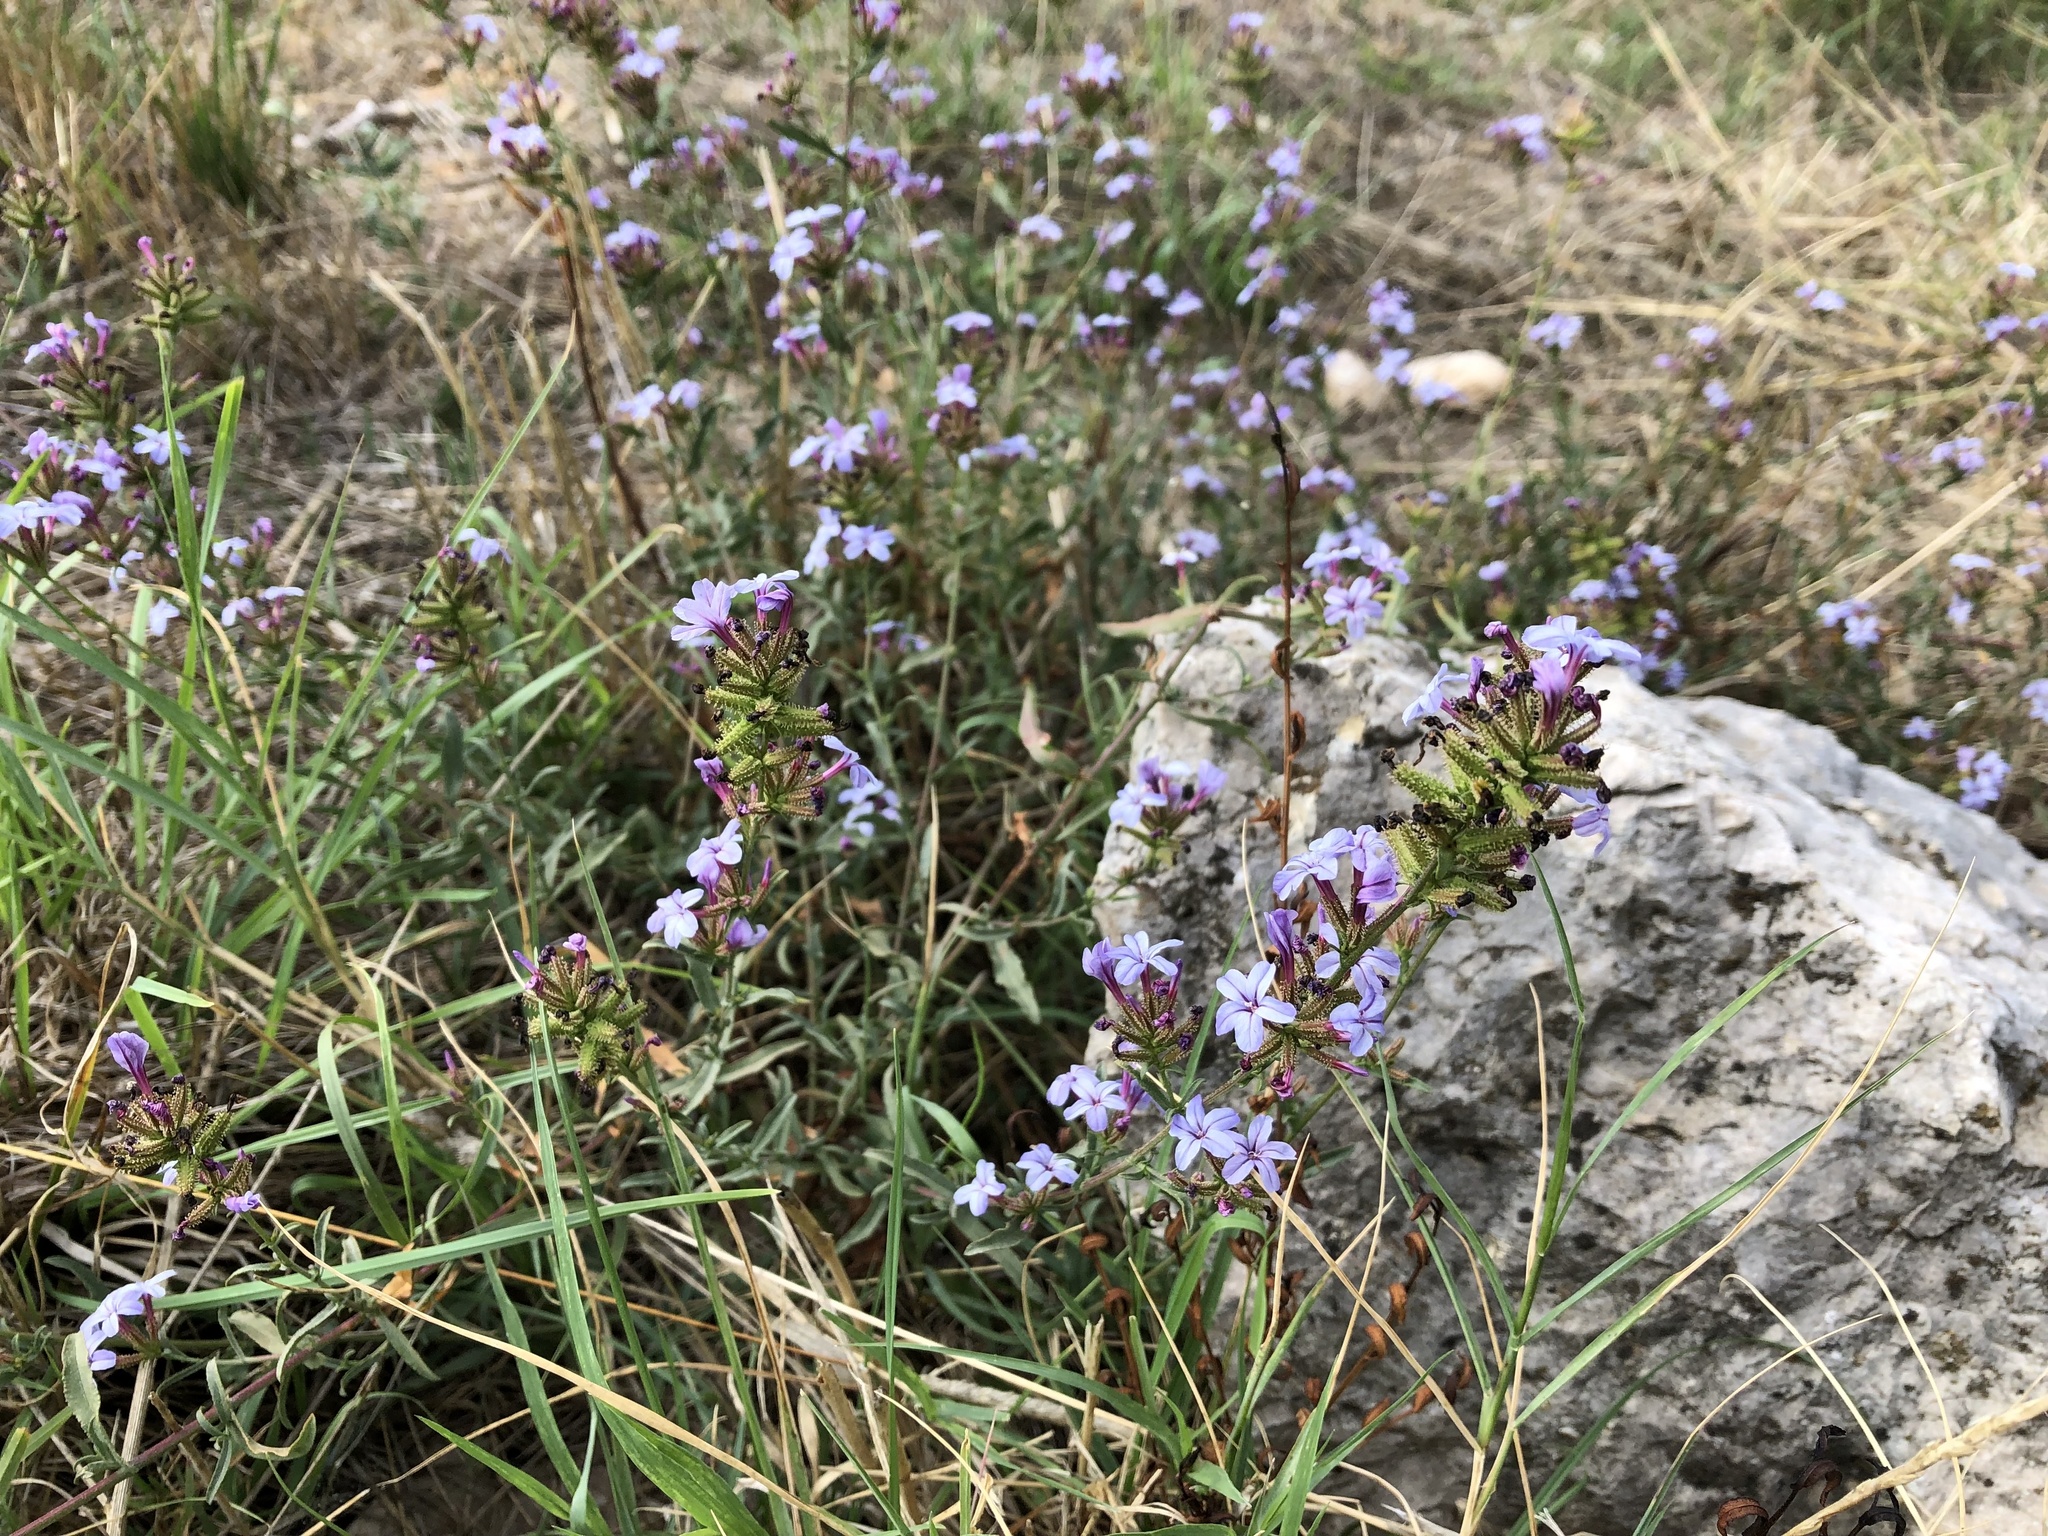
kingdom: Plantae
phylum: Tracheophyta
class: Magnoliopsida
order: Caryophyllales
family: Plumbaginaceae
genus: Plumbago
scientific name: Plumbago europaea
